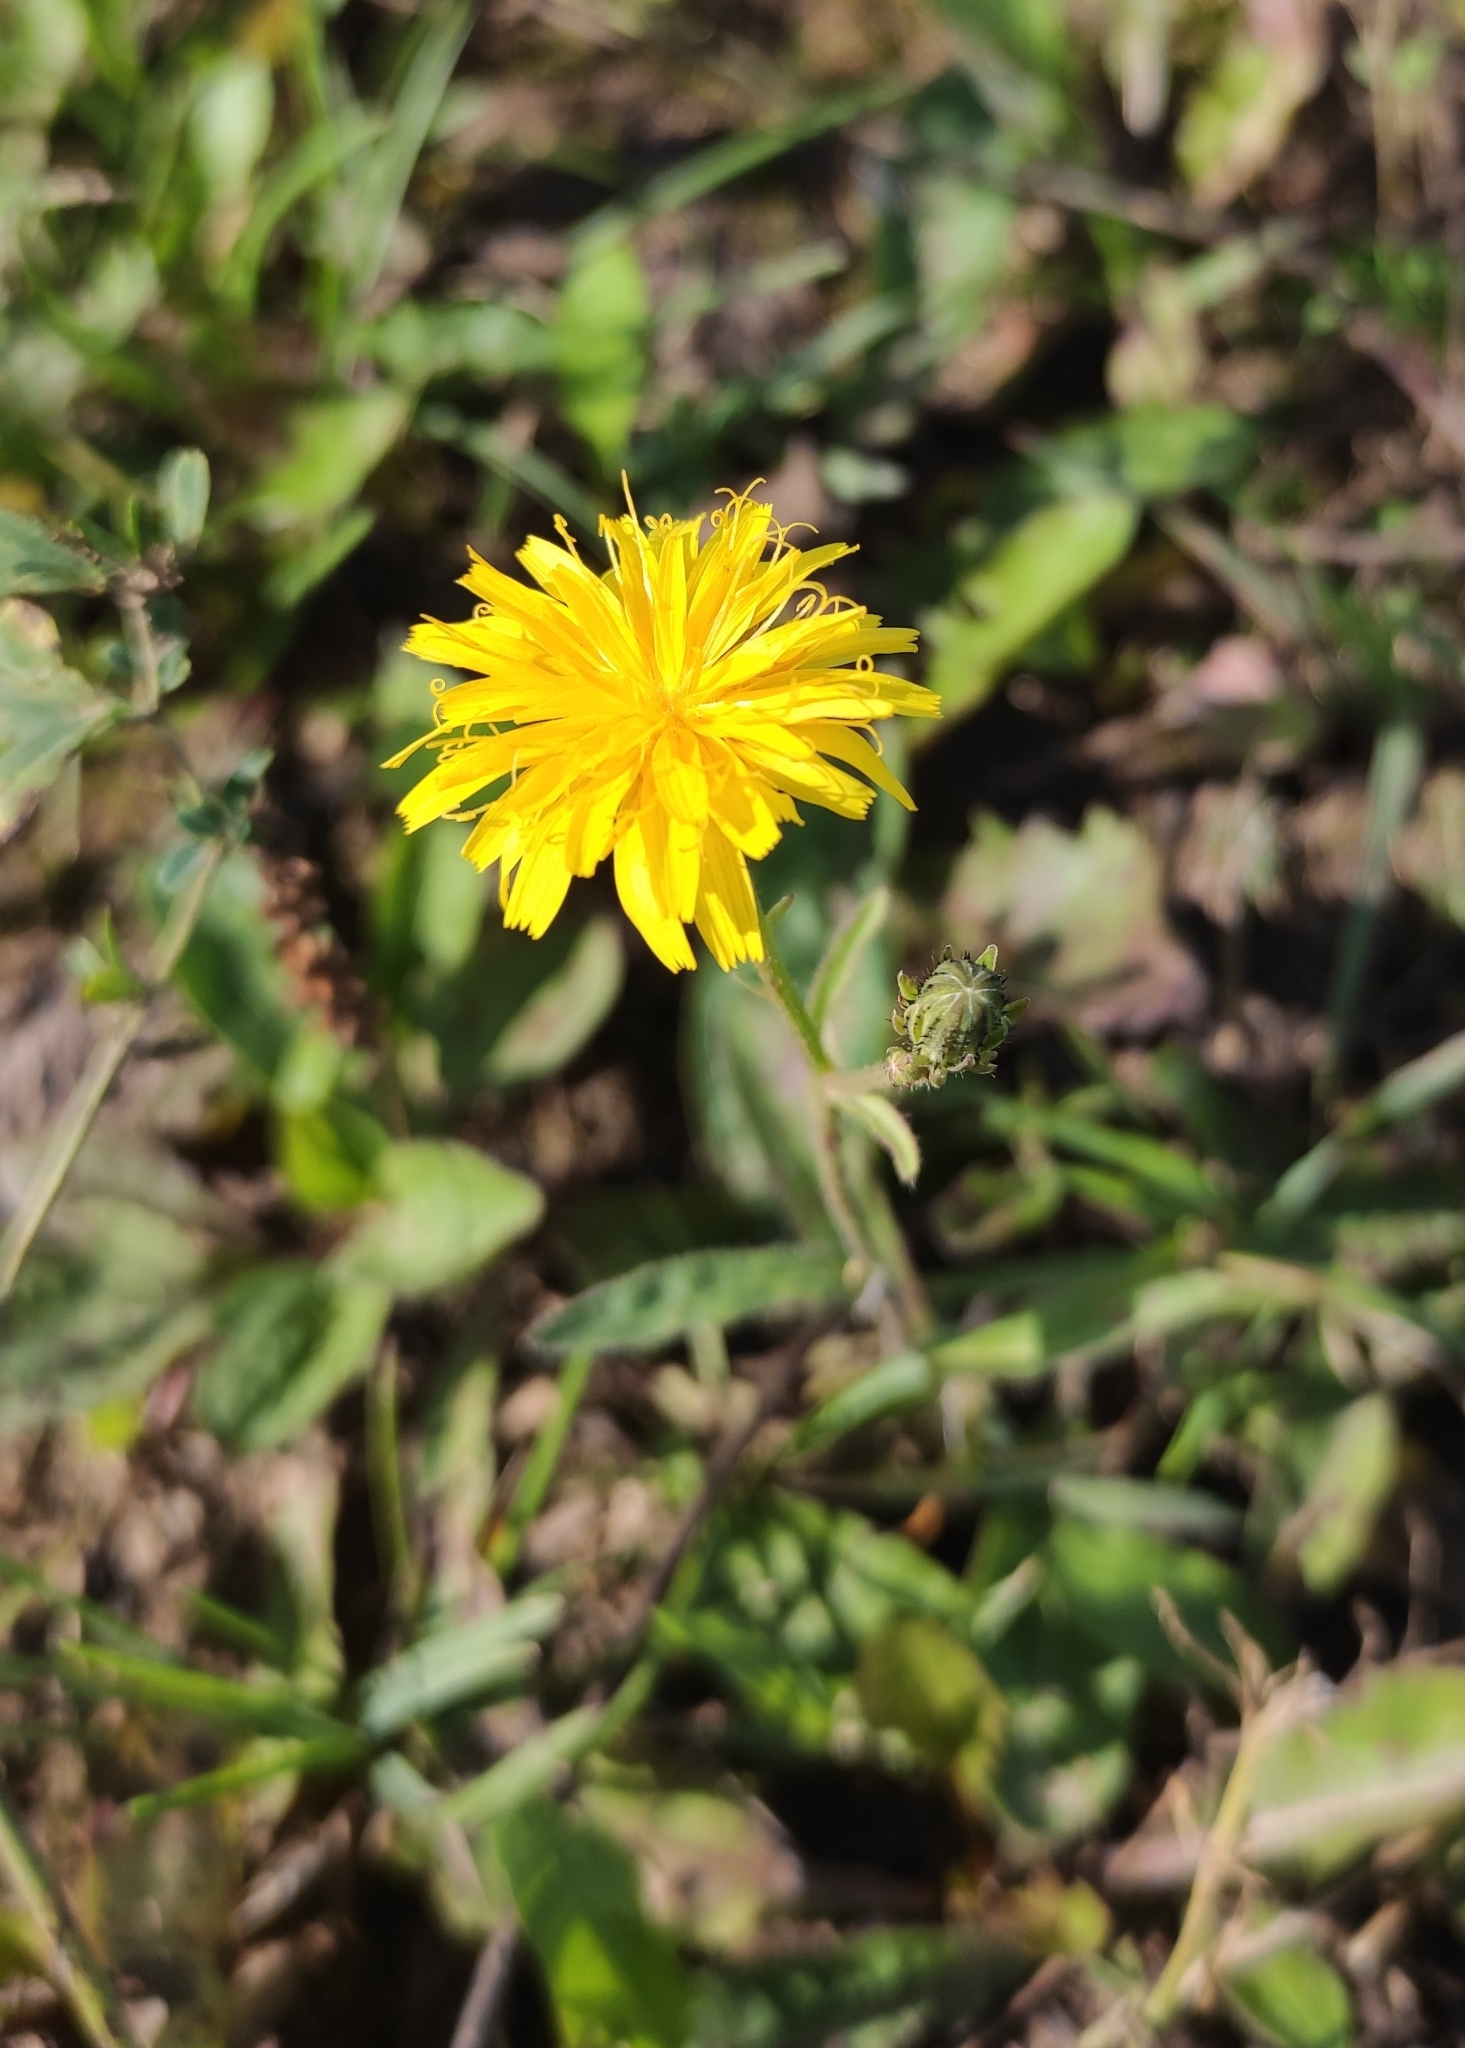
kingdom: Plantae
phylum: Tracheophyta
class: Magnoliopsida
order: Asterales
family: Asteraceae
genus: Picris
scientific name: Picris hieracioides
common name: Hawkweed oxtongue
